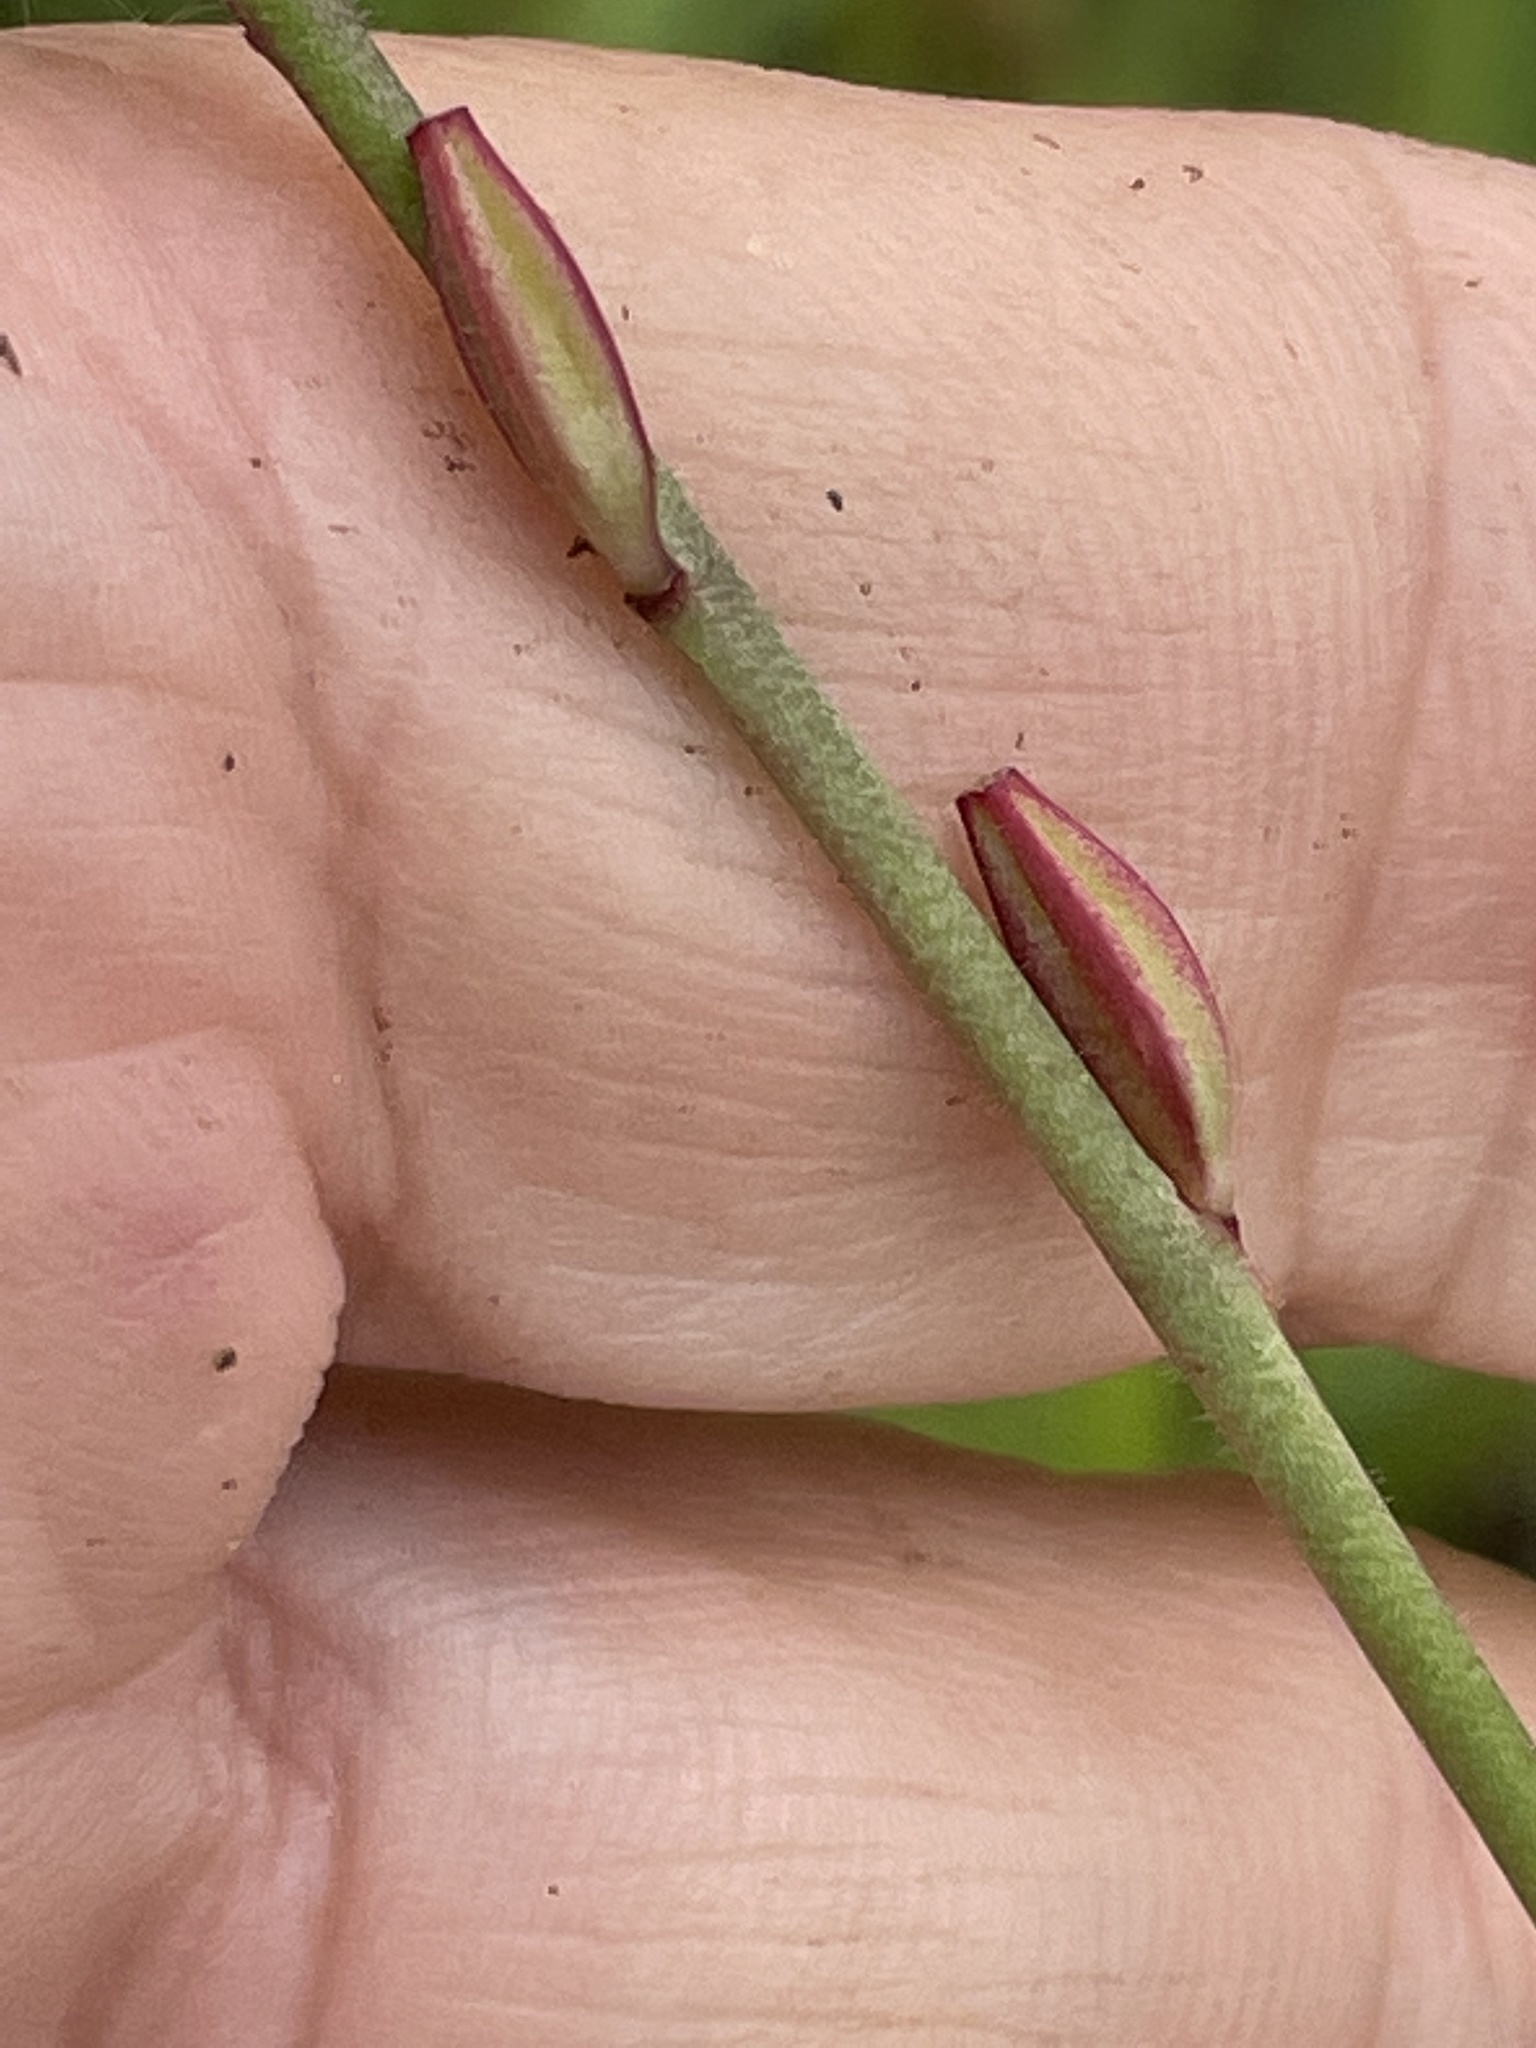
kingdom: Plantae
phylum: Tracheophyta
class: Magnoliopsida
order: Myrtales
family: Onagraceae
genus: Oenothera
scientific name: Oenothera lindheimeri
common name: Lindheimer's beeblossom
